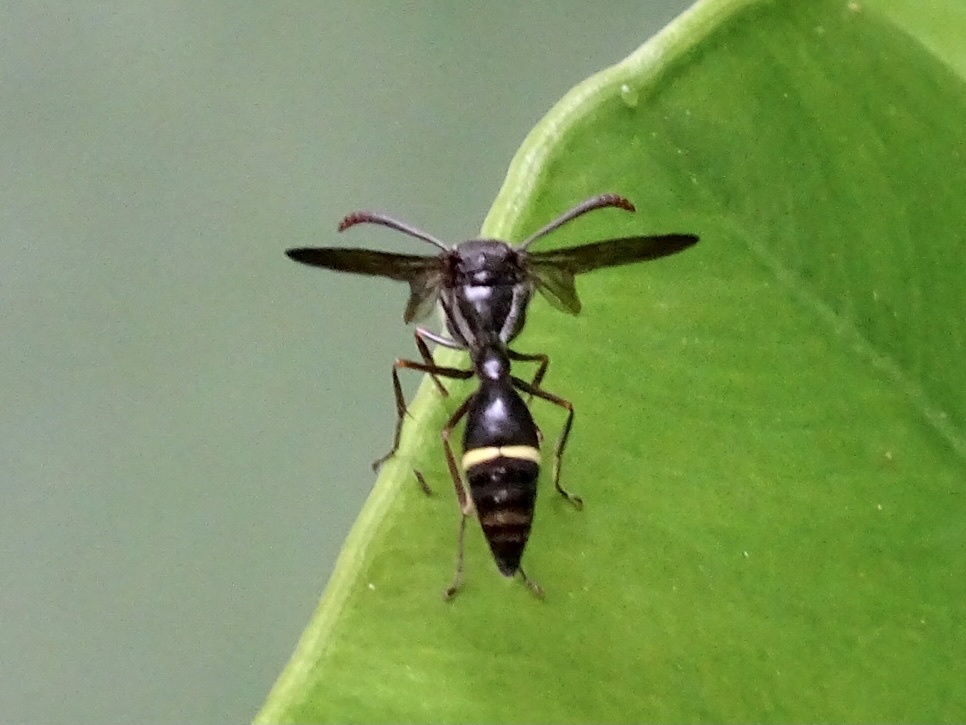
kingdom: Animalia
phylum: Arthropoda
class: Insecta
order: Hymenoptera
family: Vespidae
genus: Eustenogaster
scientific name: Eustenogaster nigra
